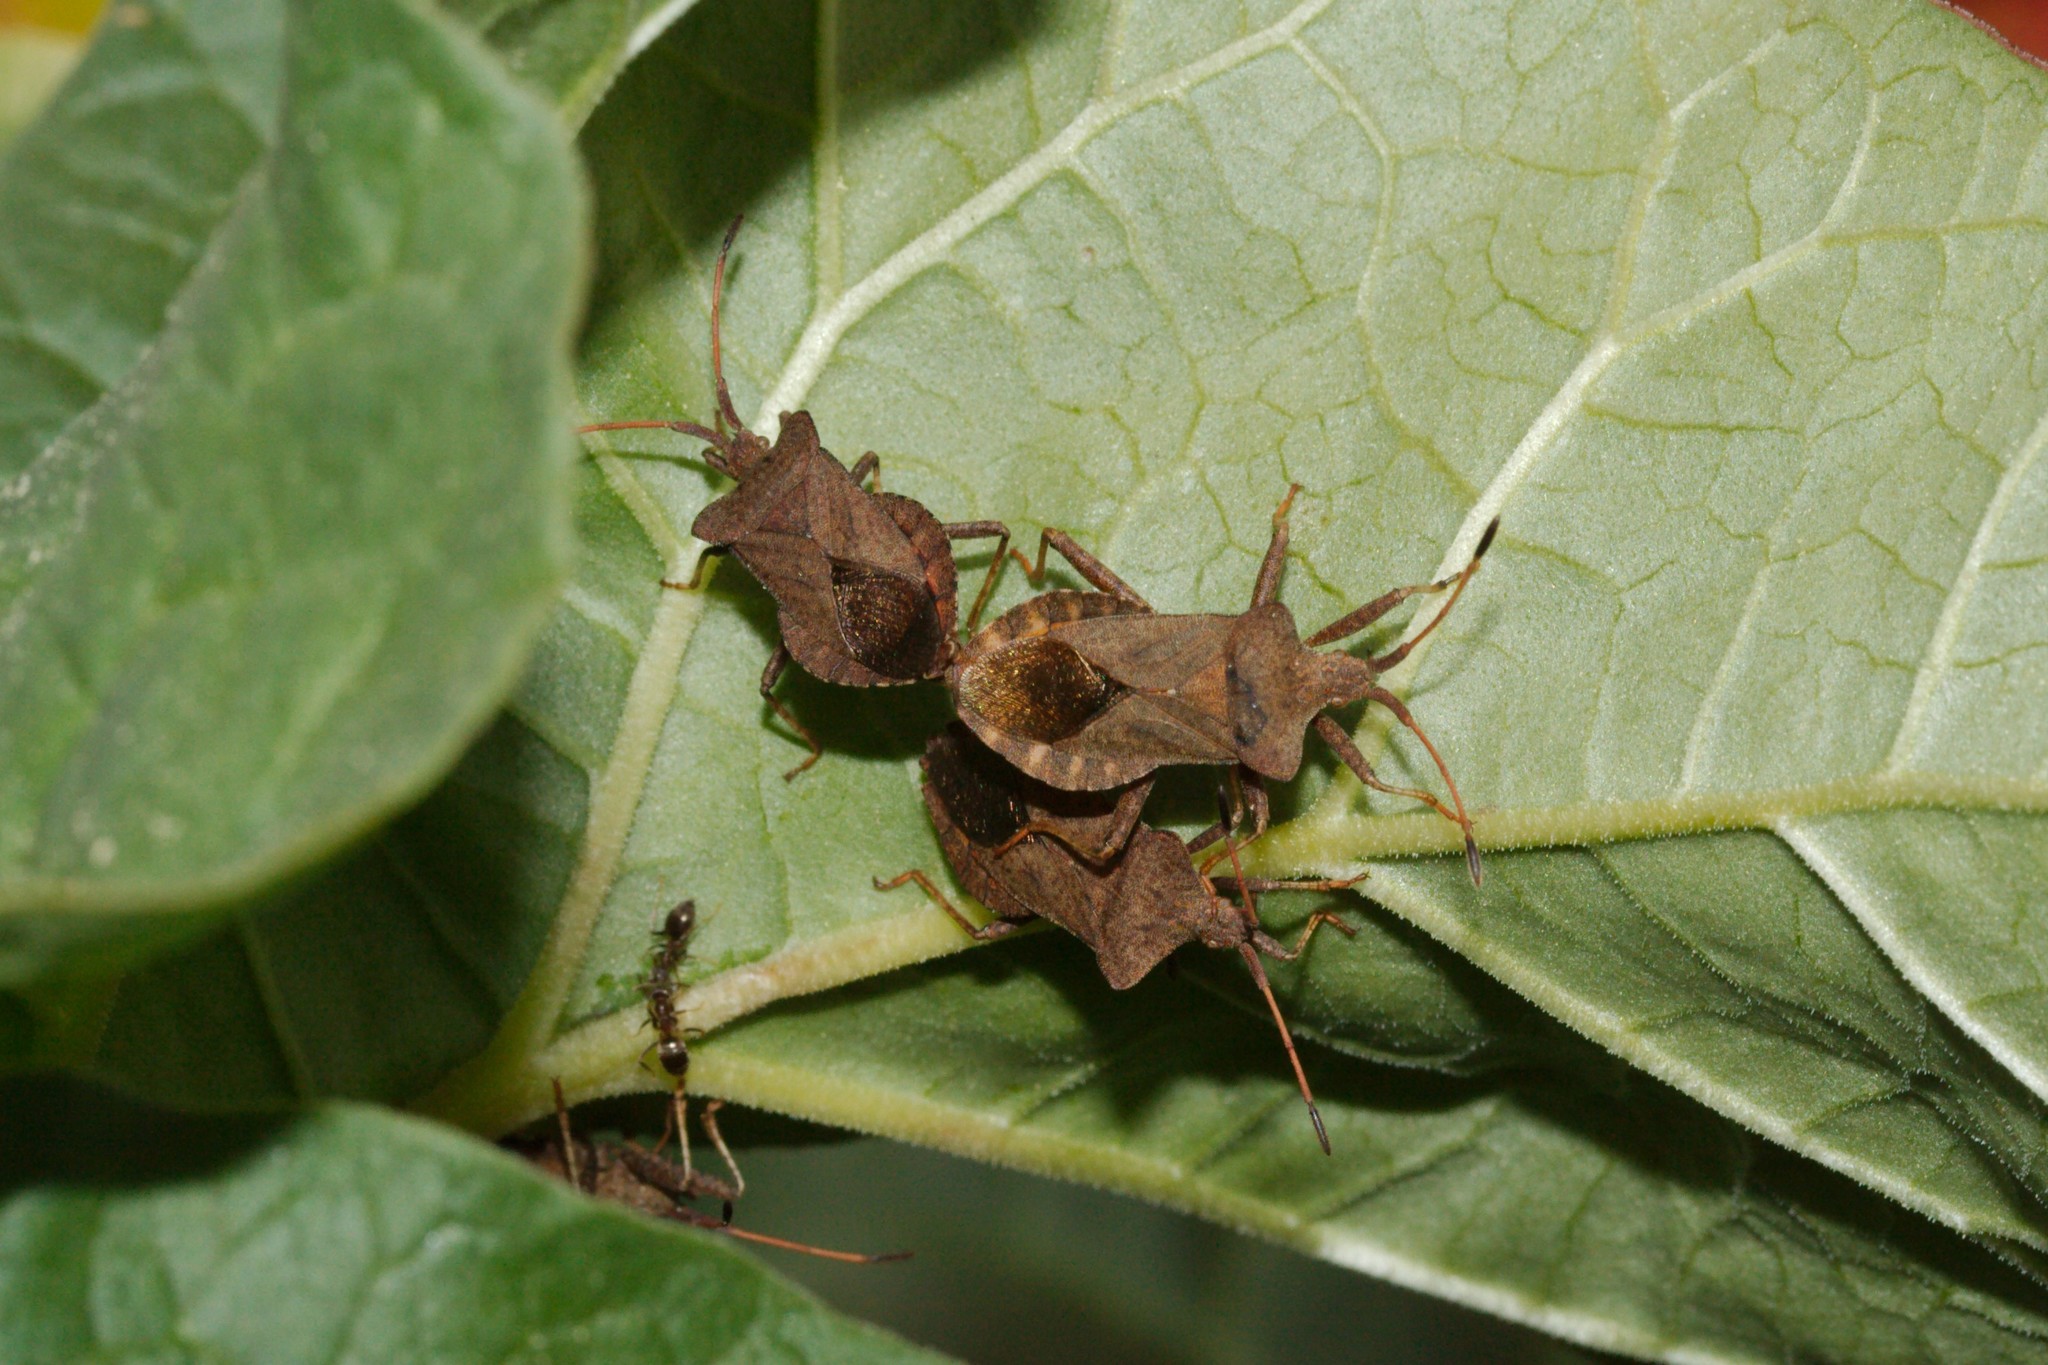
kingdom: Animalia
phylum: Arthropoda
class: Insecta
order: Hemiptera
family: Coreidae
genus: Coreus
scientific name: Coreus marginatus
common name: Dock bug
